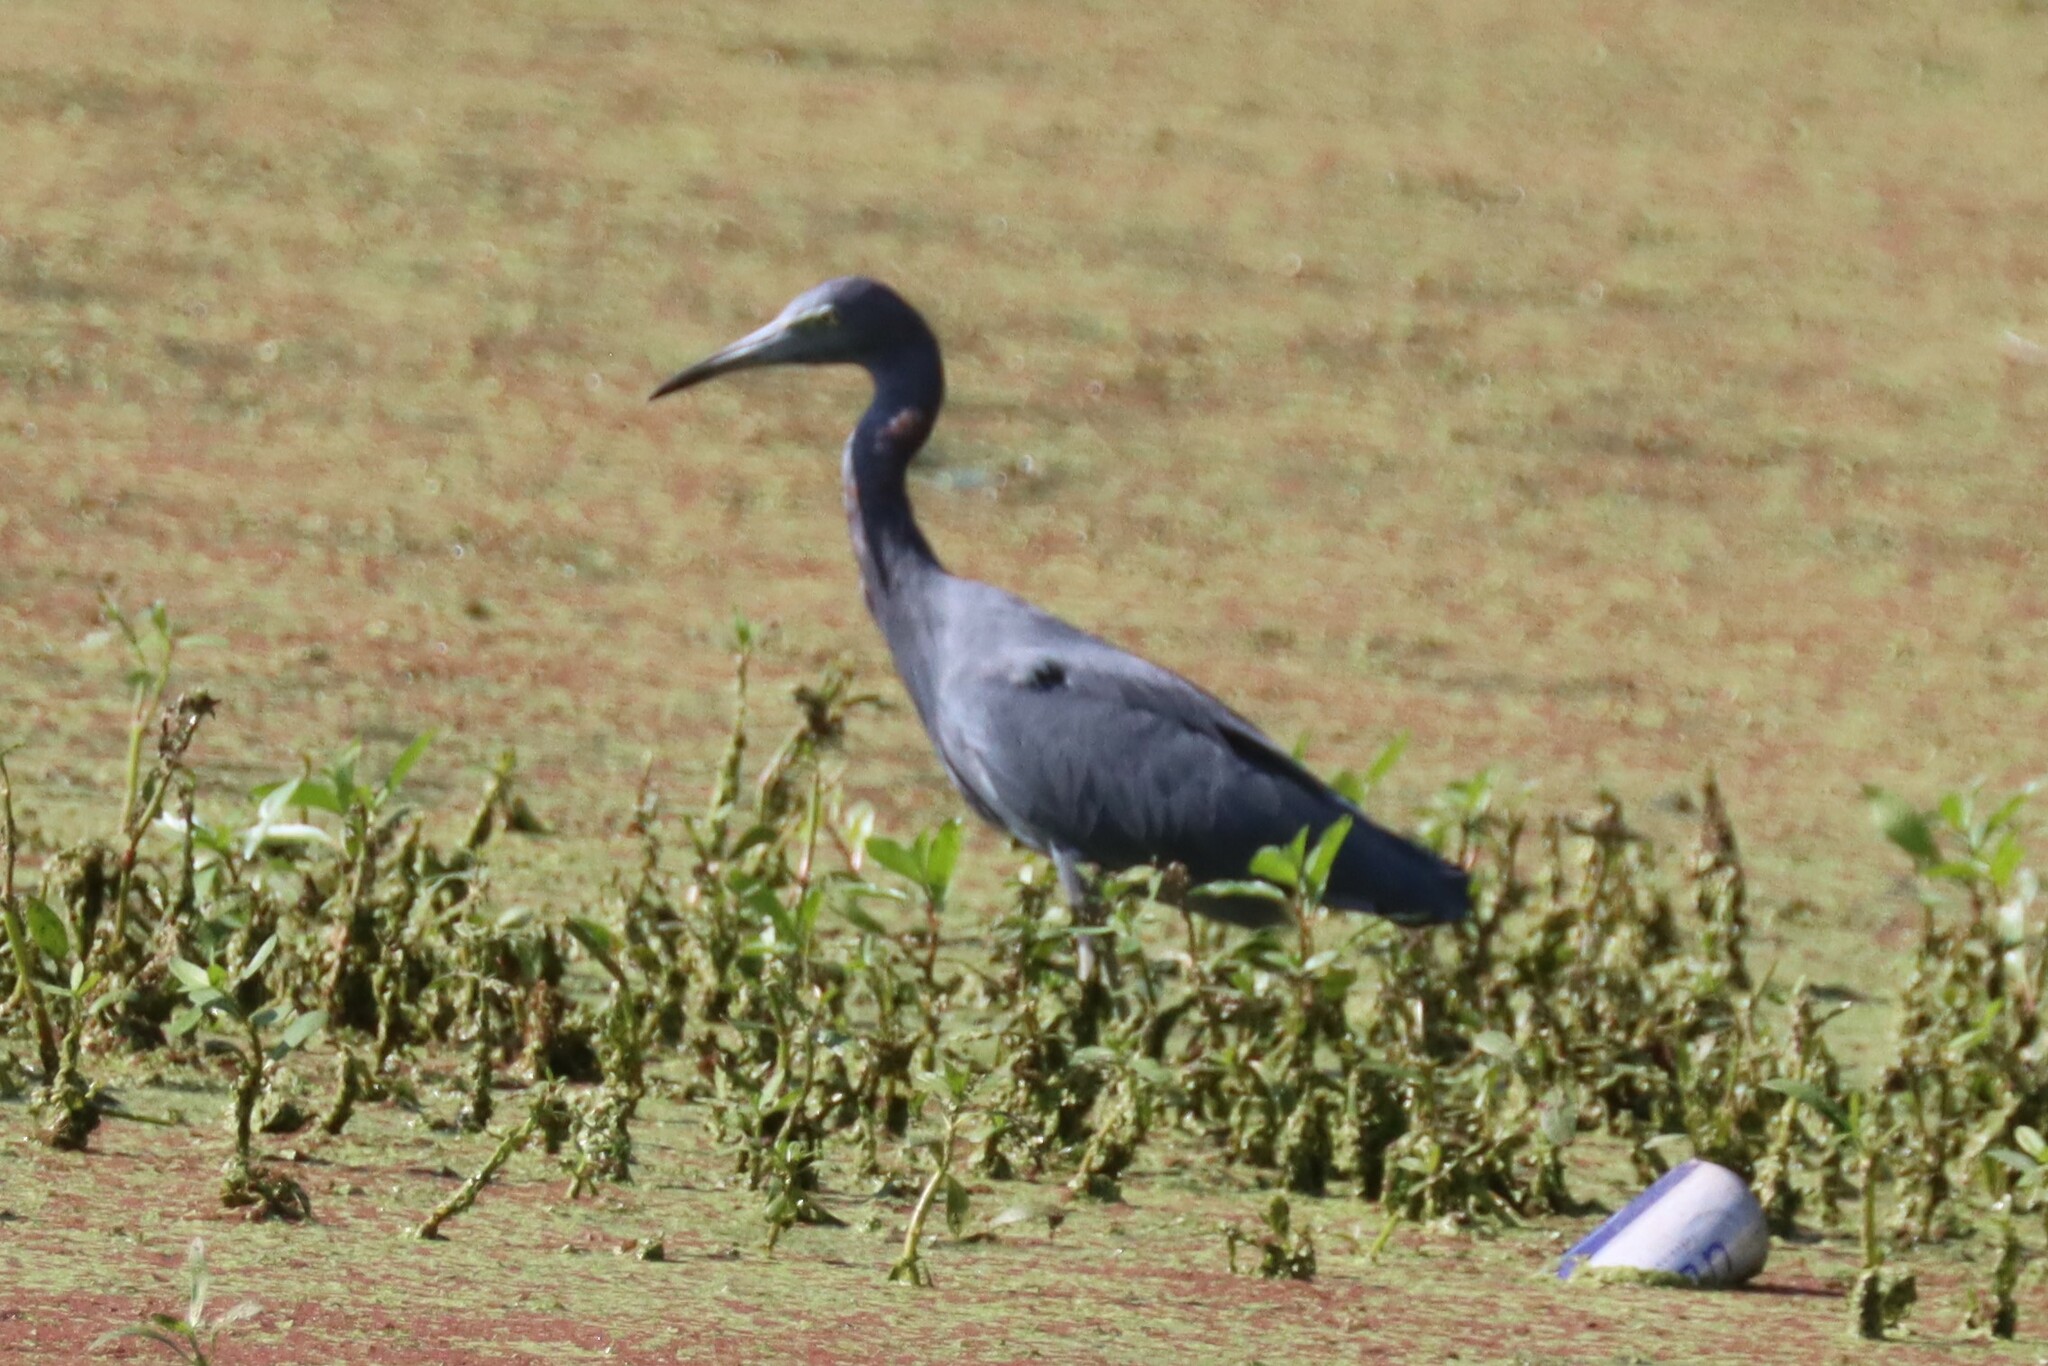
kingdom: Animalia
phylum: Chordata
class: Aves
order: Pelecaniformes
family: Ardeidae
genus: Egretta
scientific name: Egretta caerulea
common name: Little blue heron
